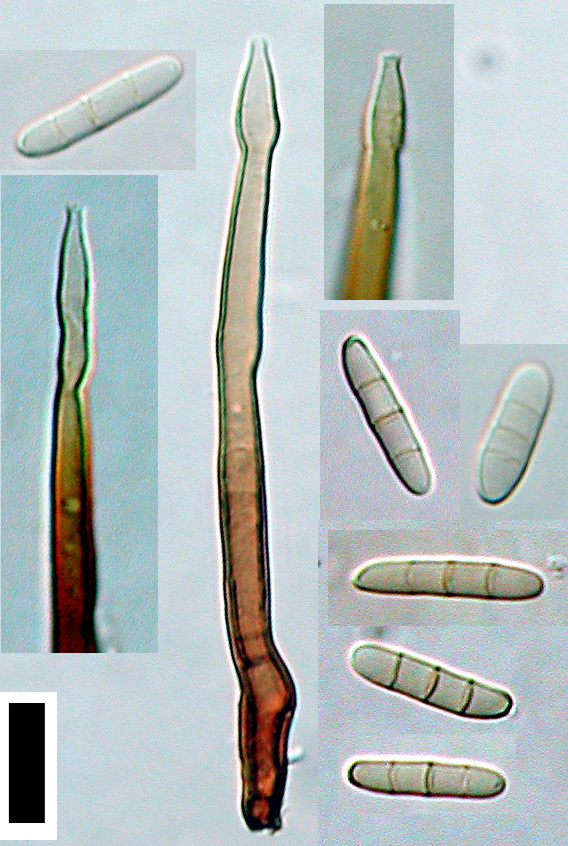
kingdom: Fungi
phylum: Ascomycota
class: Sordariomycetes
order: Chaetosphaeriales
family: Chaetosphaeriaceae
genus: Cylindrotrichum
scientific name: Cylindrotrichum ellisii
